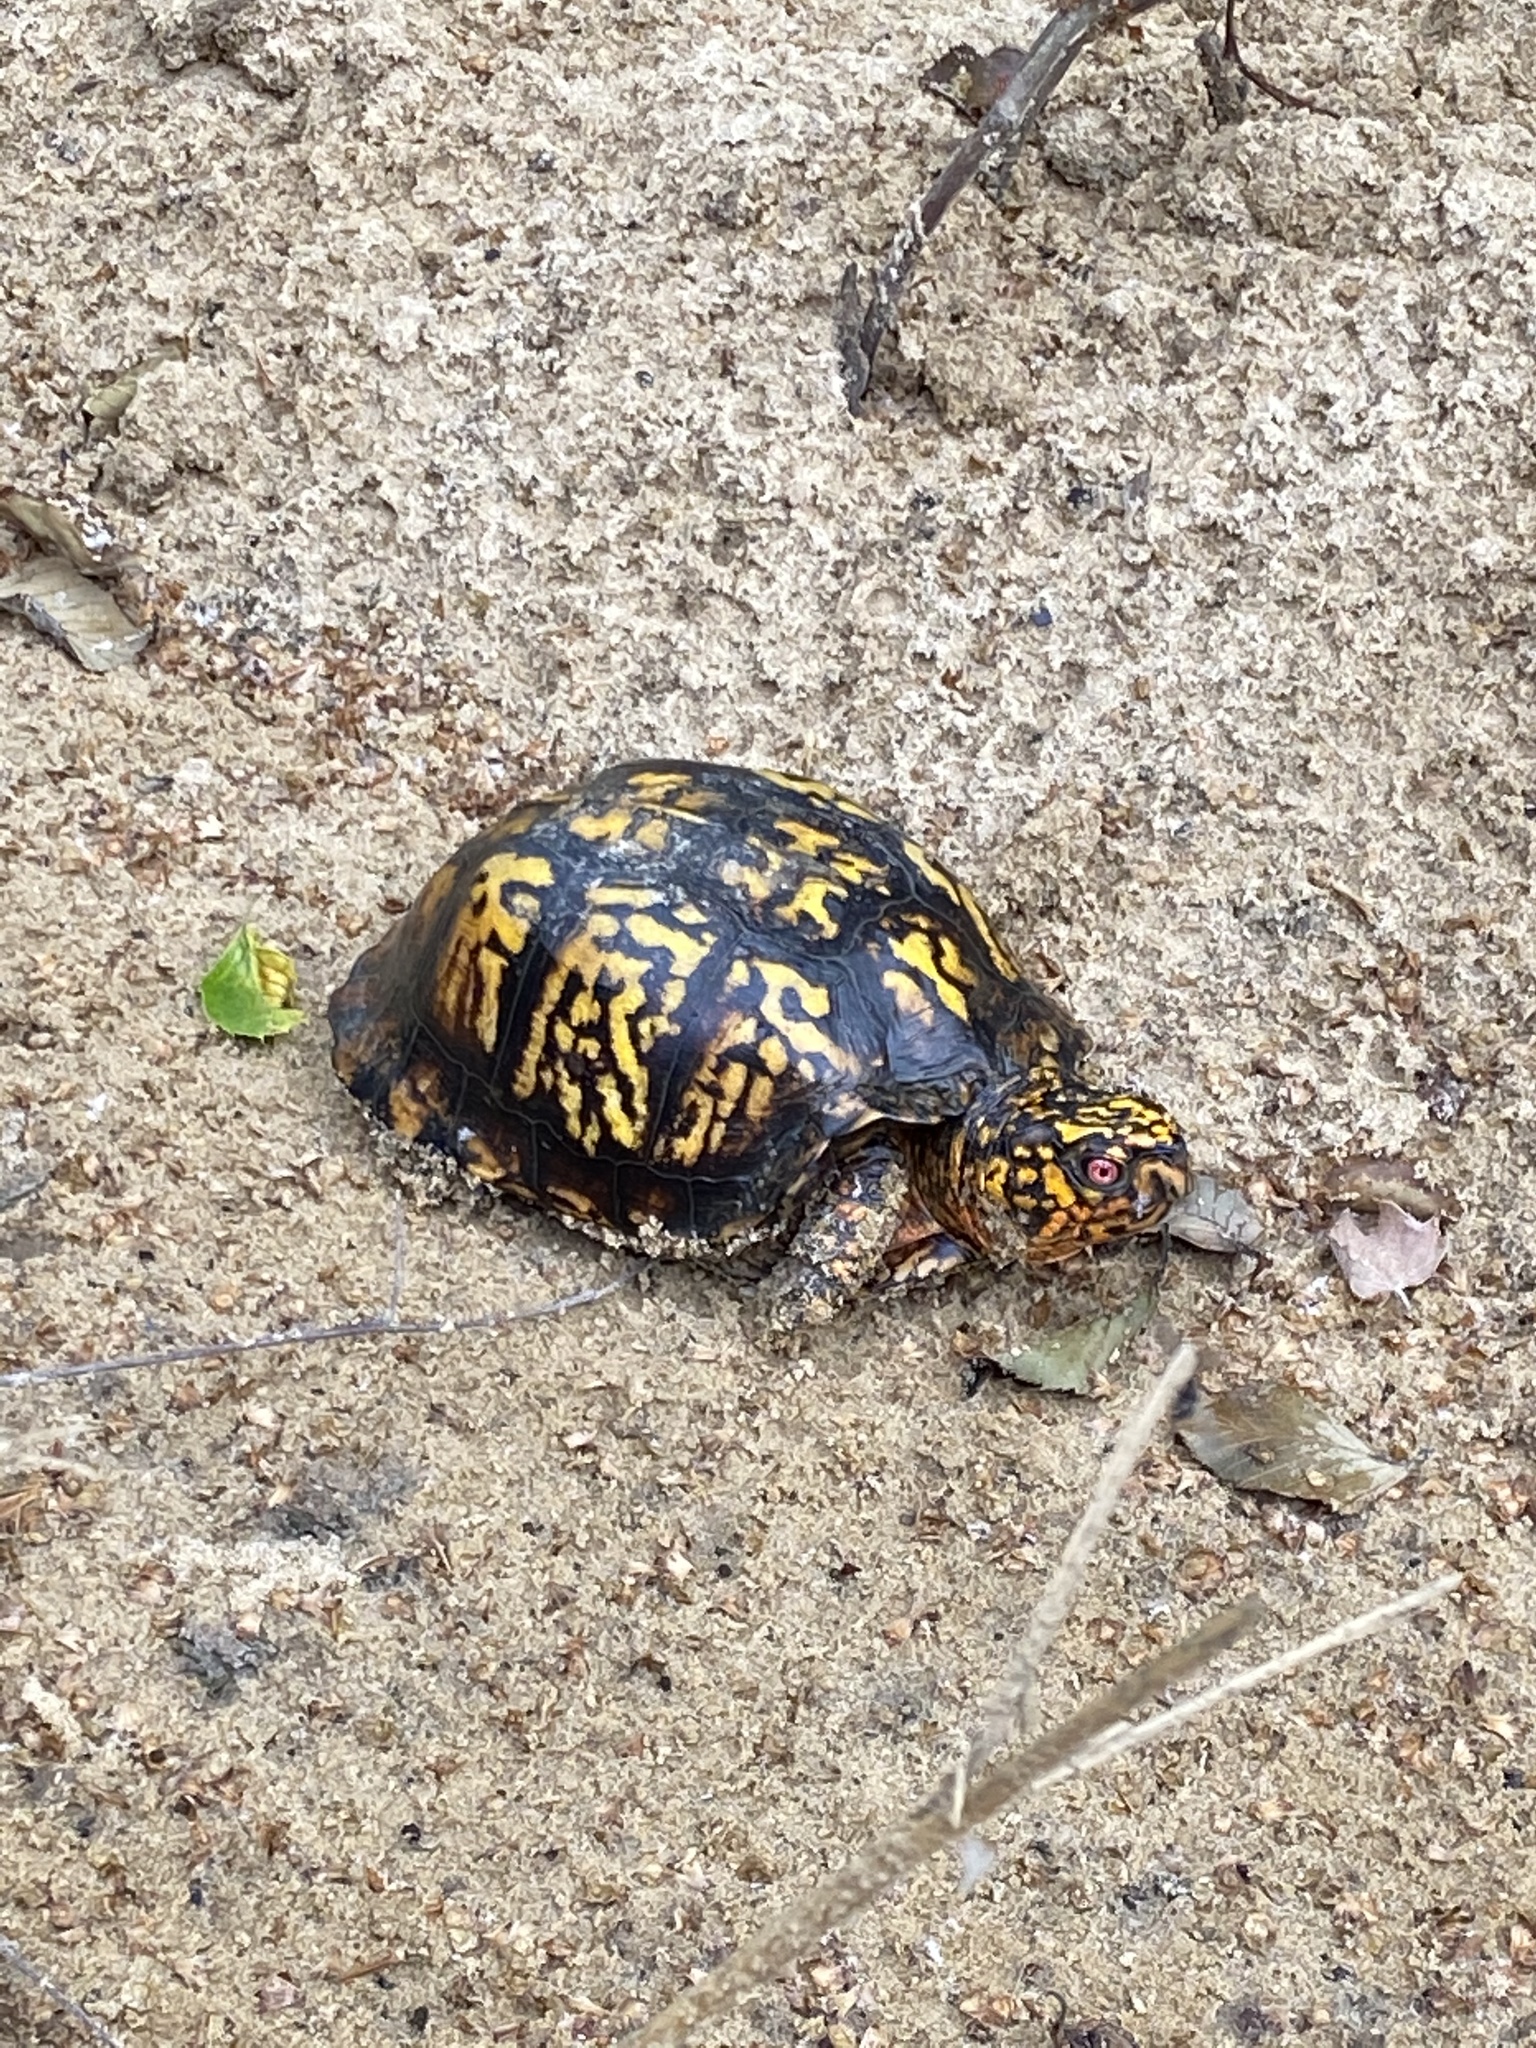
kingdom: Animalia
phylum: Chordata
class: Testudines
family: Emydidae
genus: Terrapene
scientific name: Terrapene carolina
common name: Common box turtle
